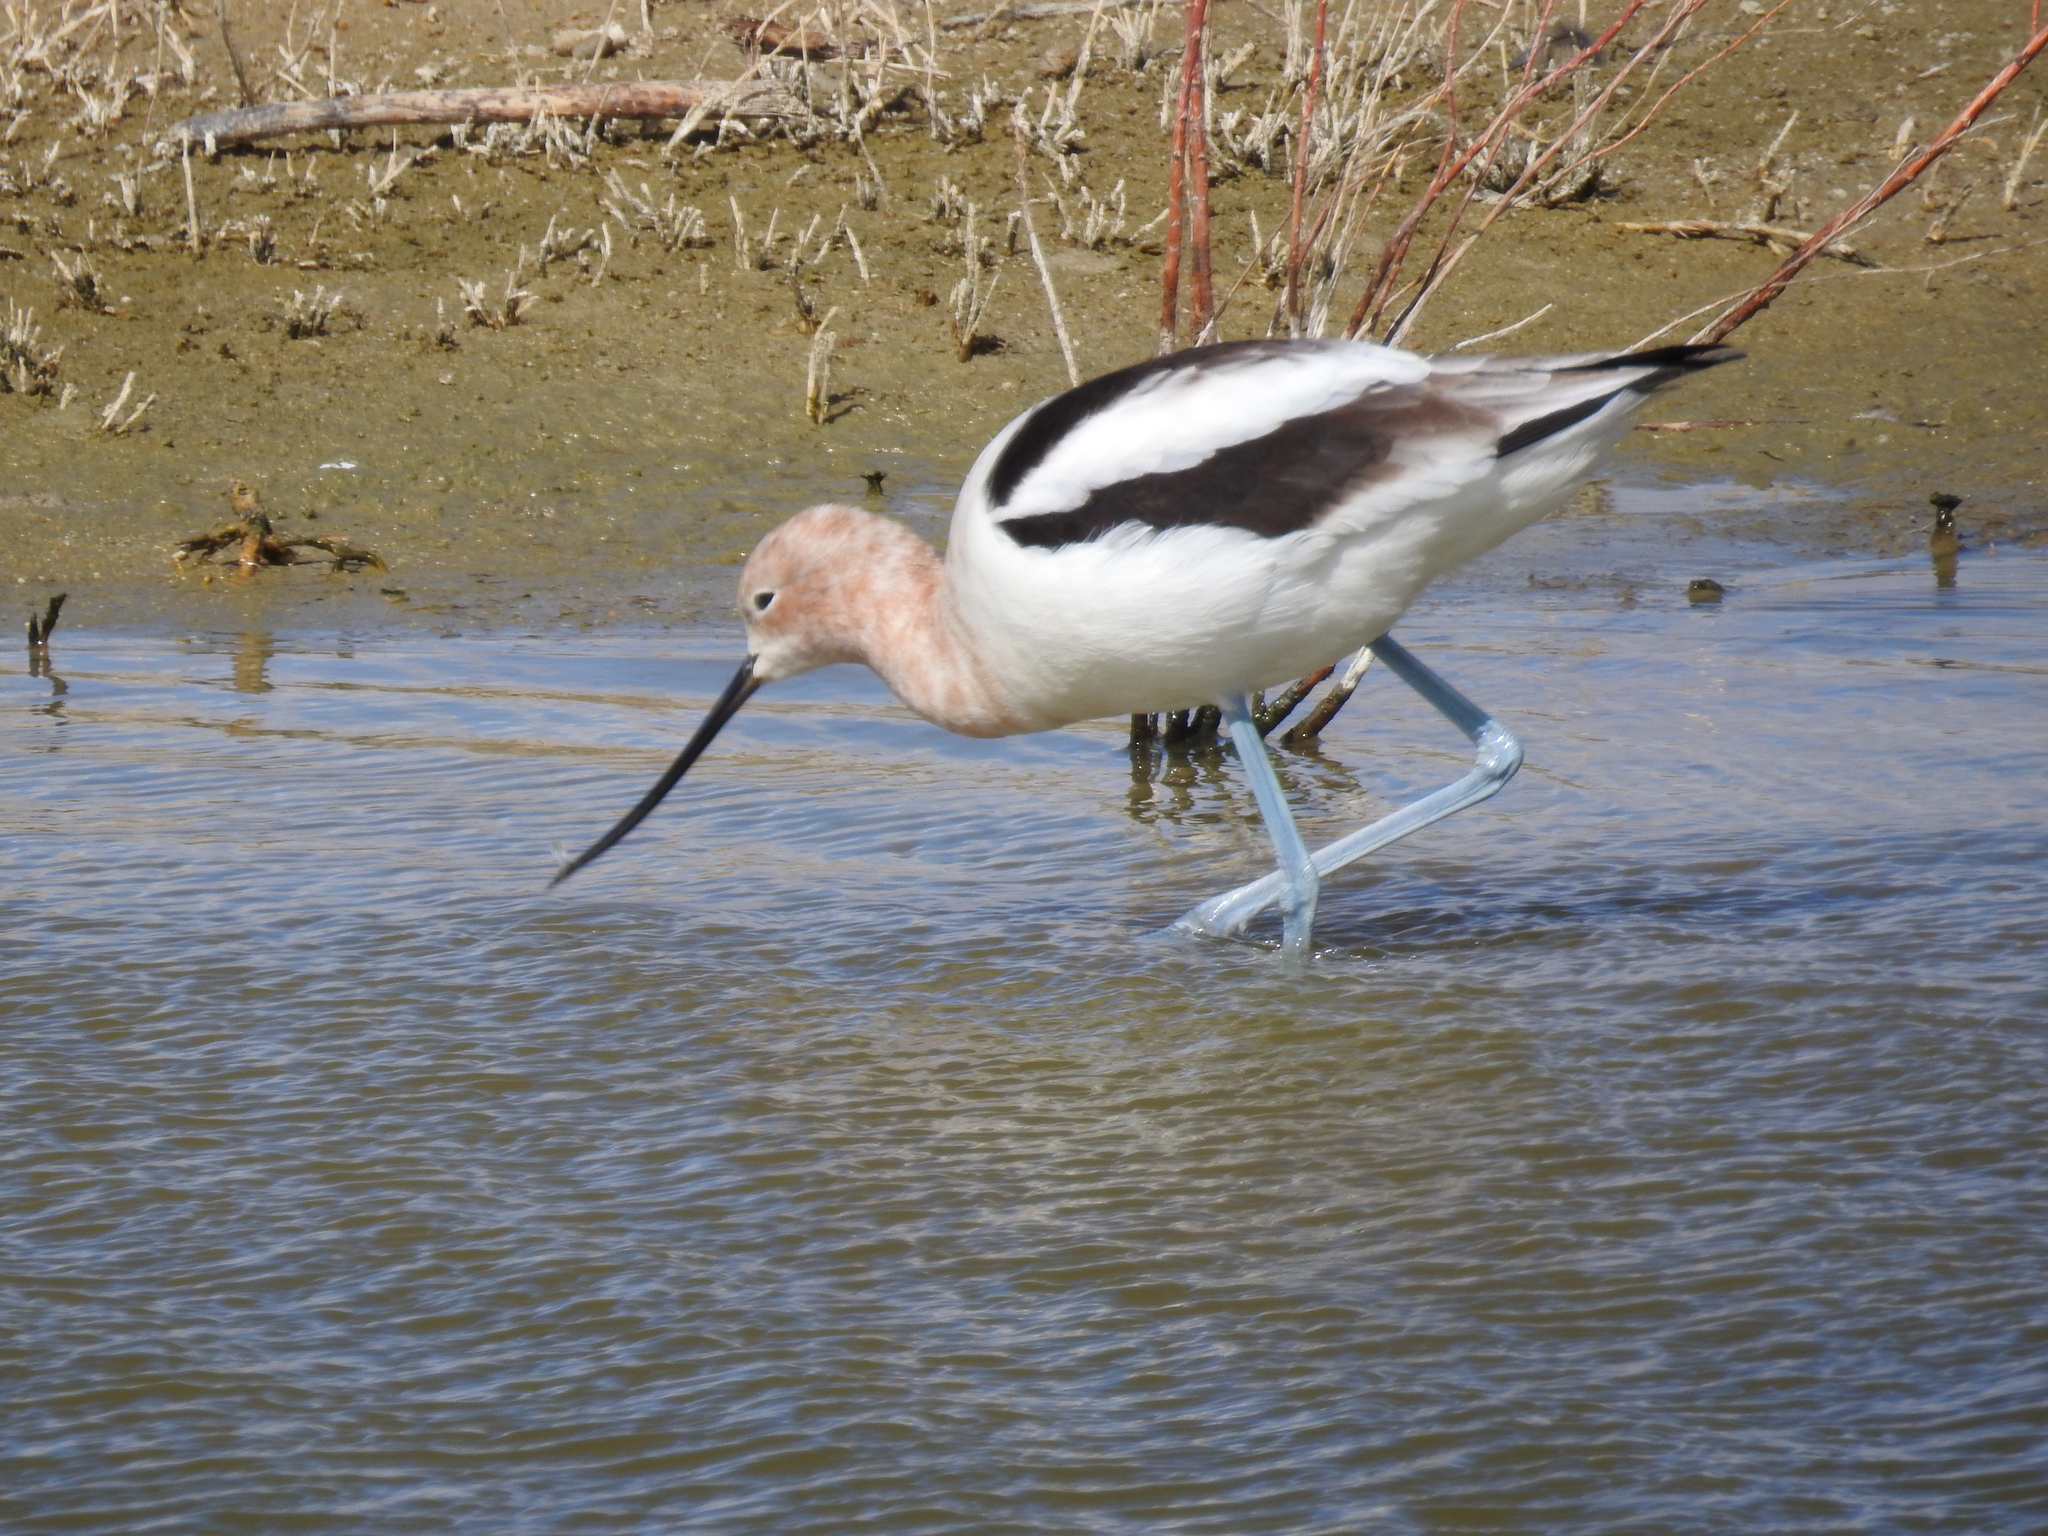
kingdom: Animalia
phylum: Chordata
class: Aves
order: Charadriiformes
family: Recurvirostridae
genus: Recurvirostra
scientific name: Recurvirostra americana
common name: American avocet
